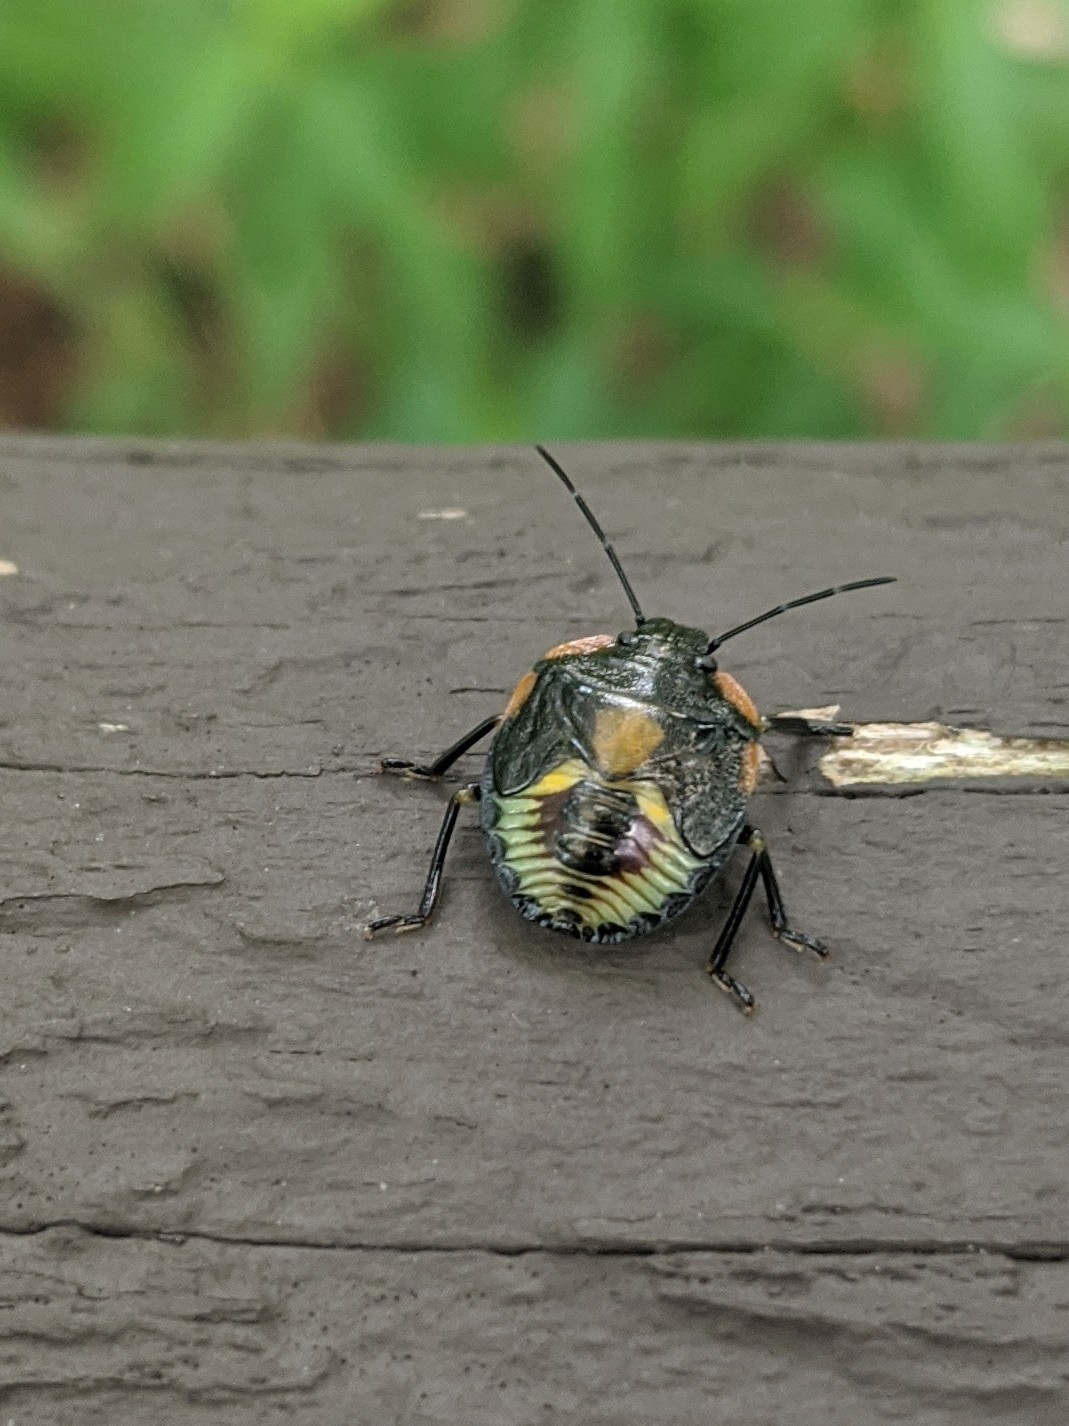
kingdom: Animalia
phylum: Arthropoda
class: Insecta
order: Hemiptera
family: Pentatomidae
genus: Chinavia
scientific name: Chinavia hilaris
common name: Green stink bug
